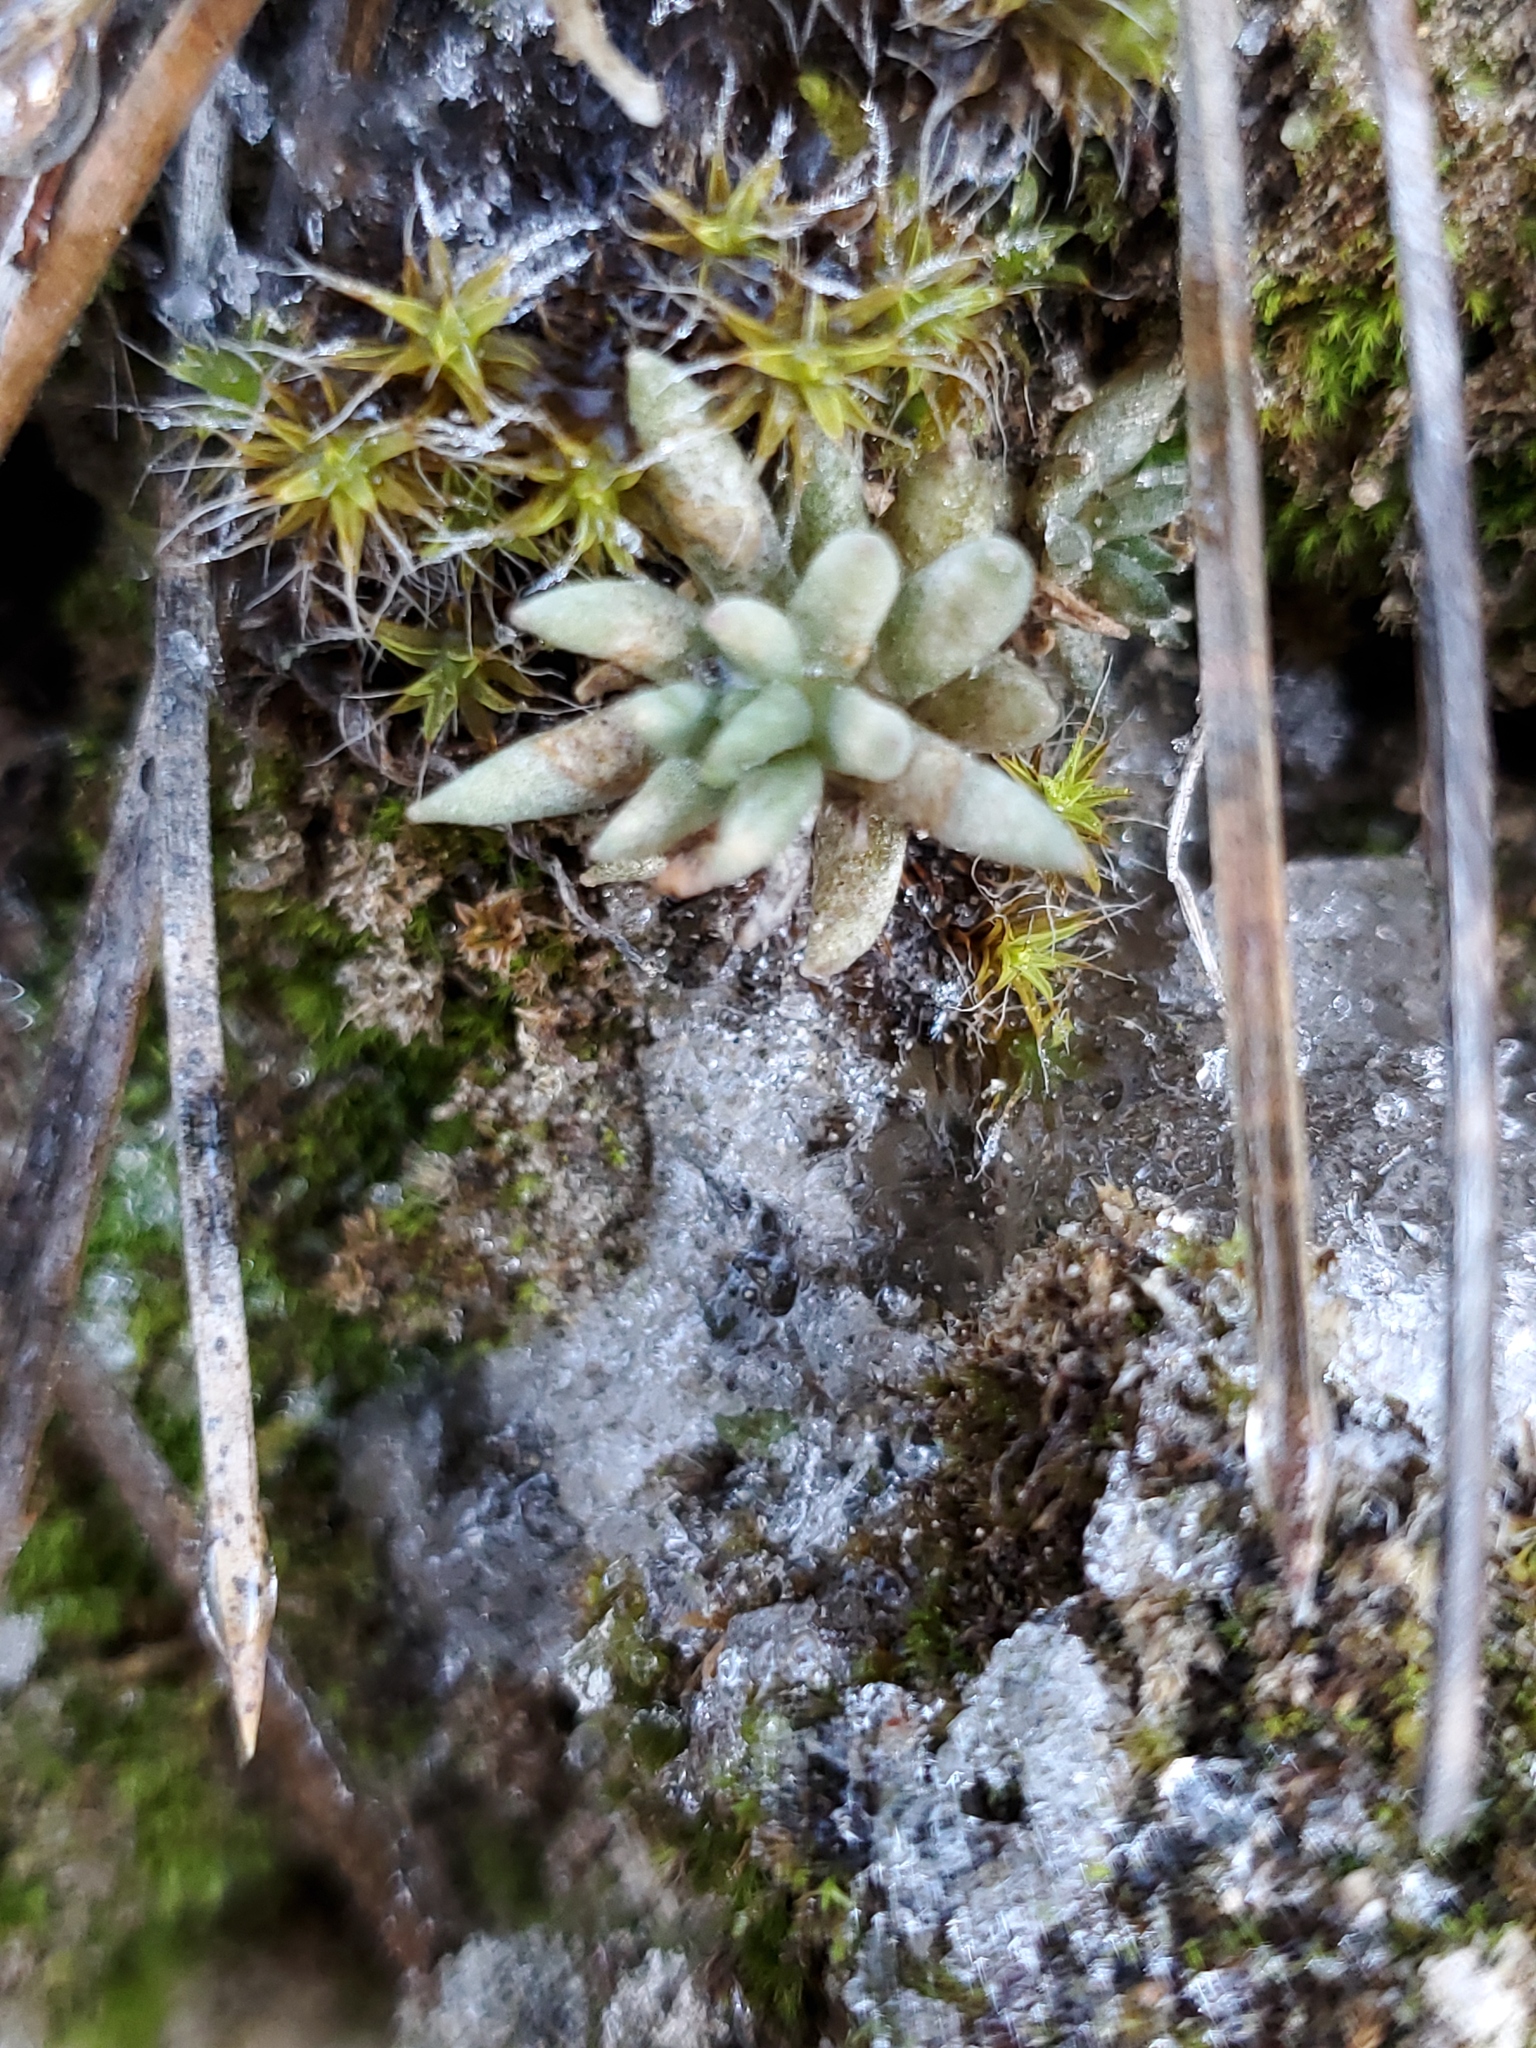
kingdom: Plantae
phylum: Tracheophyta
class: Magnoliopsida
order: Saxifragales
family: Crassulaceae
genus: Sedum
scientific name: Sedum lanceolatum
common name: Common stonecrop
